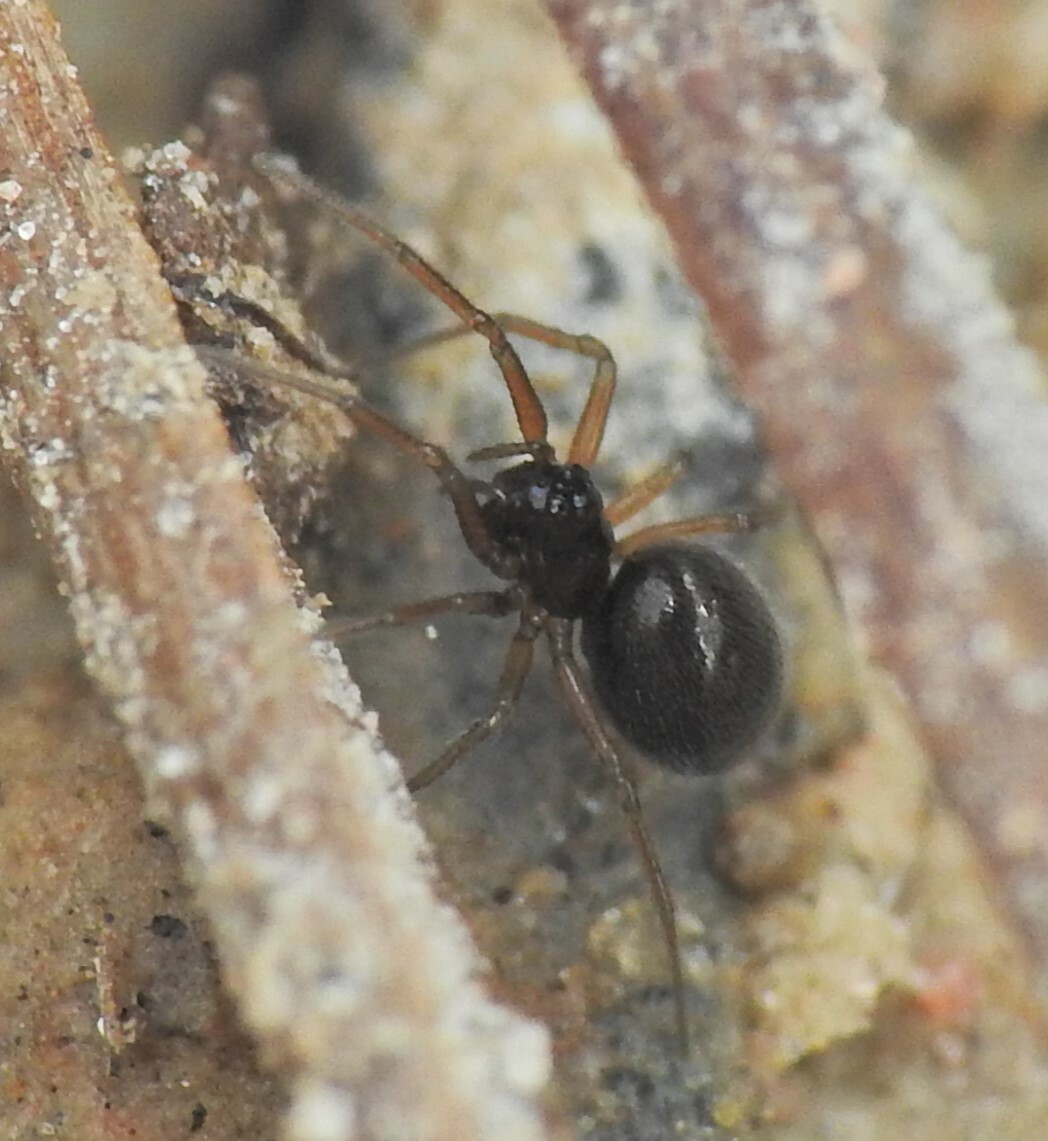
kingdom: Animalia
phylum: Arthropoda
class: Arachnida
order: Araneae
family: Linyphiidae
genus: Erigone
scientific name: Erigone eisenschmidti
